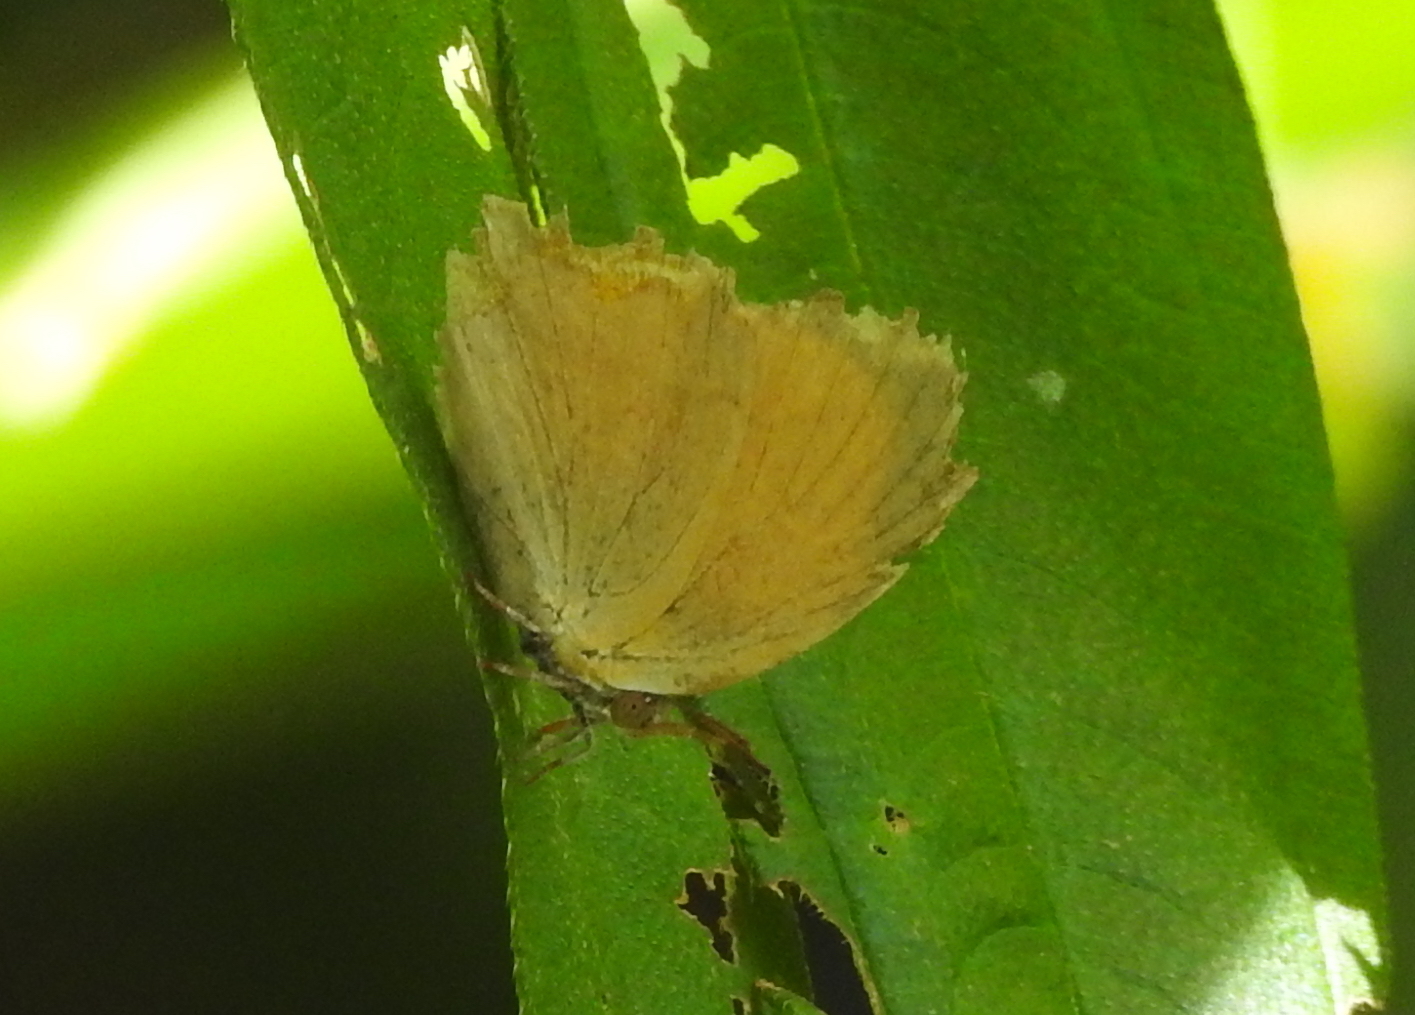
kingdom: Animalia
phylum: Arthropoda
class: Insecta
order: Lepidoptera
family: Lycaenidae
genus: Loxura
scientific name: Loxura atymnus
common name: Common yamfly
